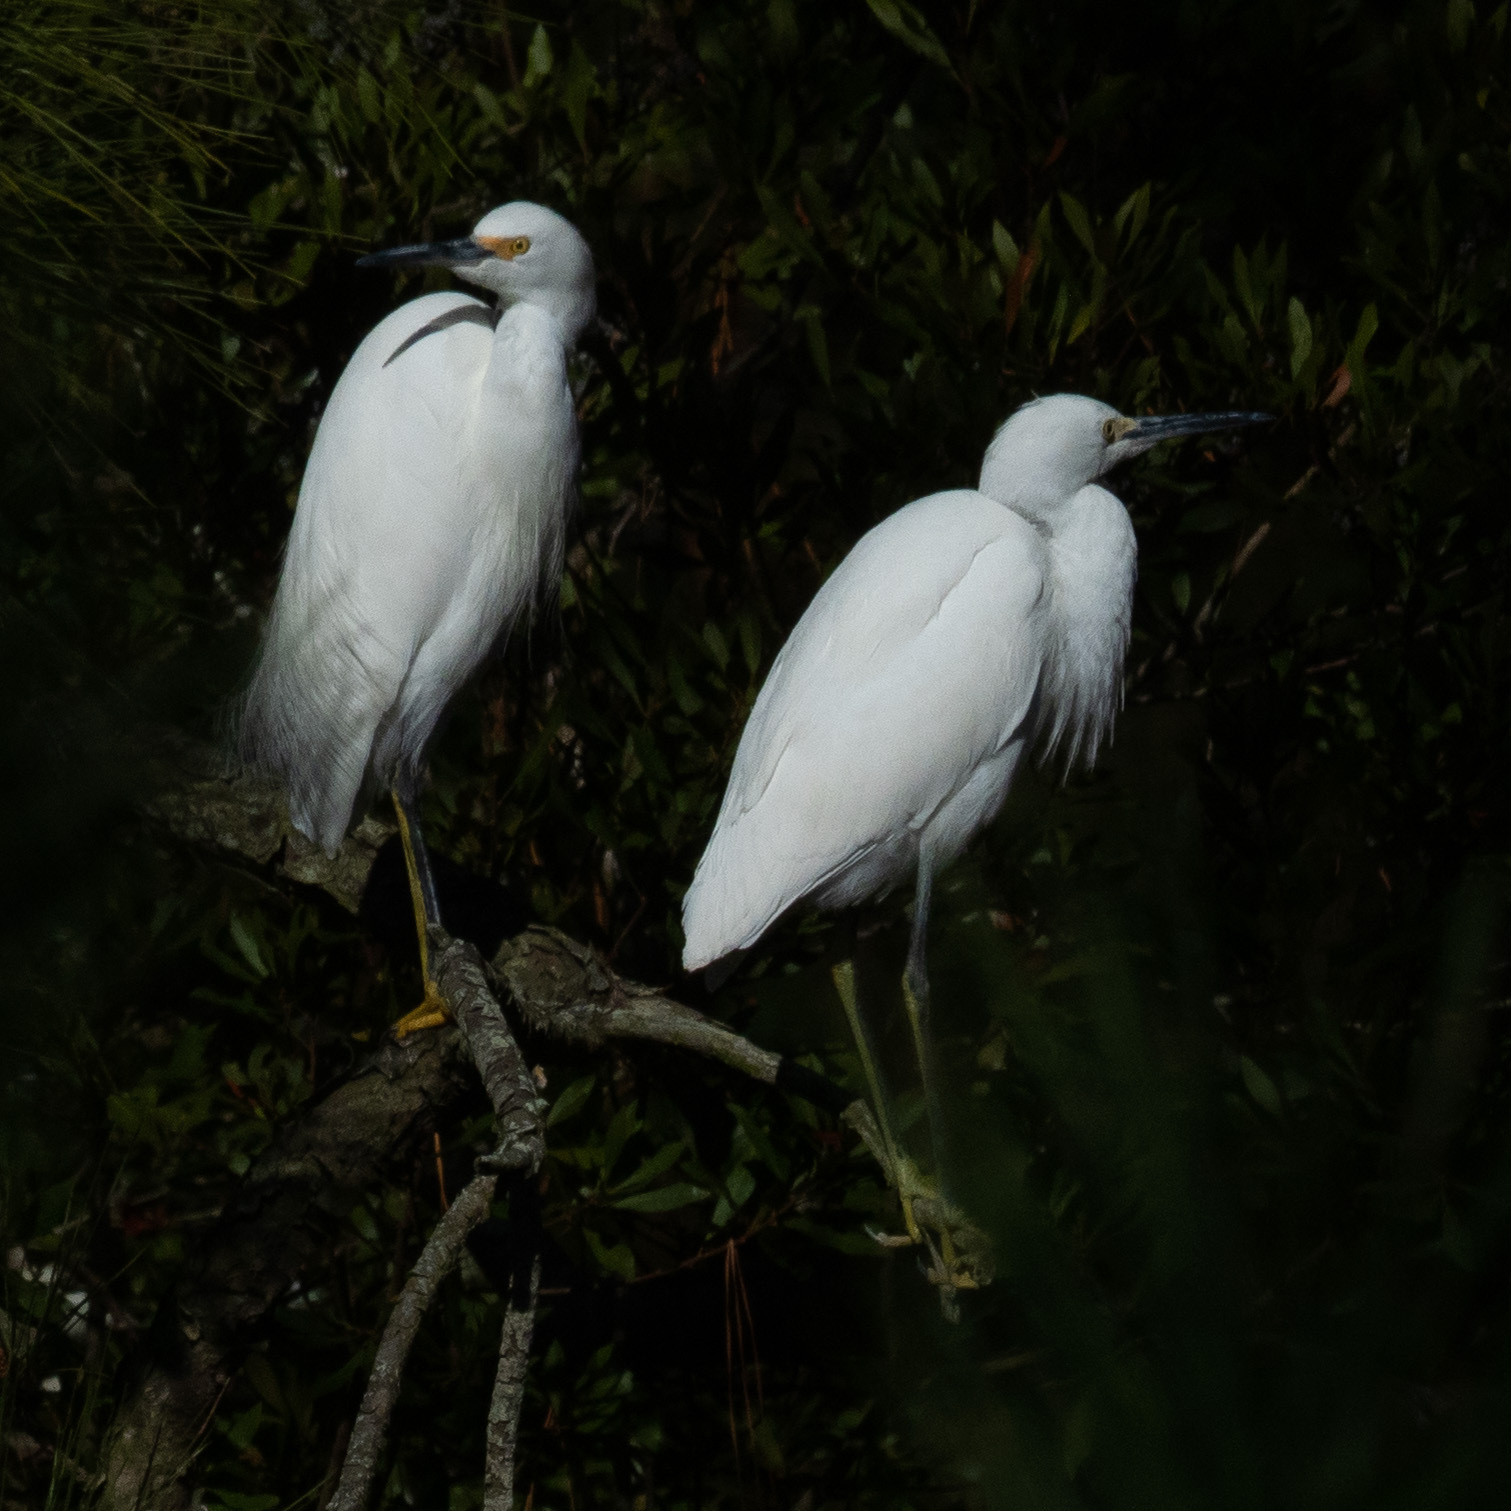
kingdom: Animalia
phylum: Chordata
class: Aves
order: Pelecaniformes
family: Ardeidae
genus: Egretta
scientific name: Egretta thula
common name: Snowy egret
